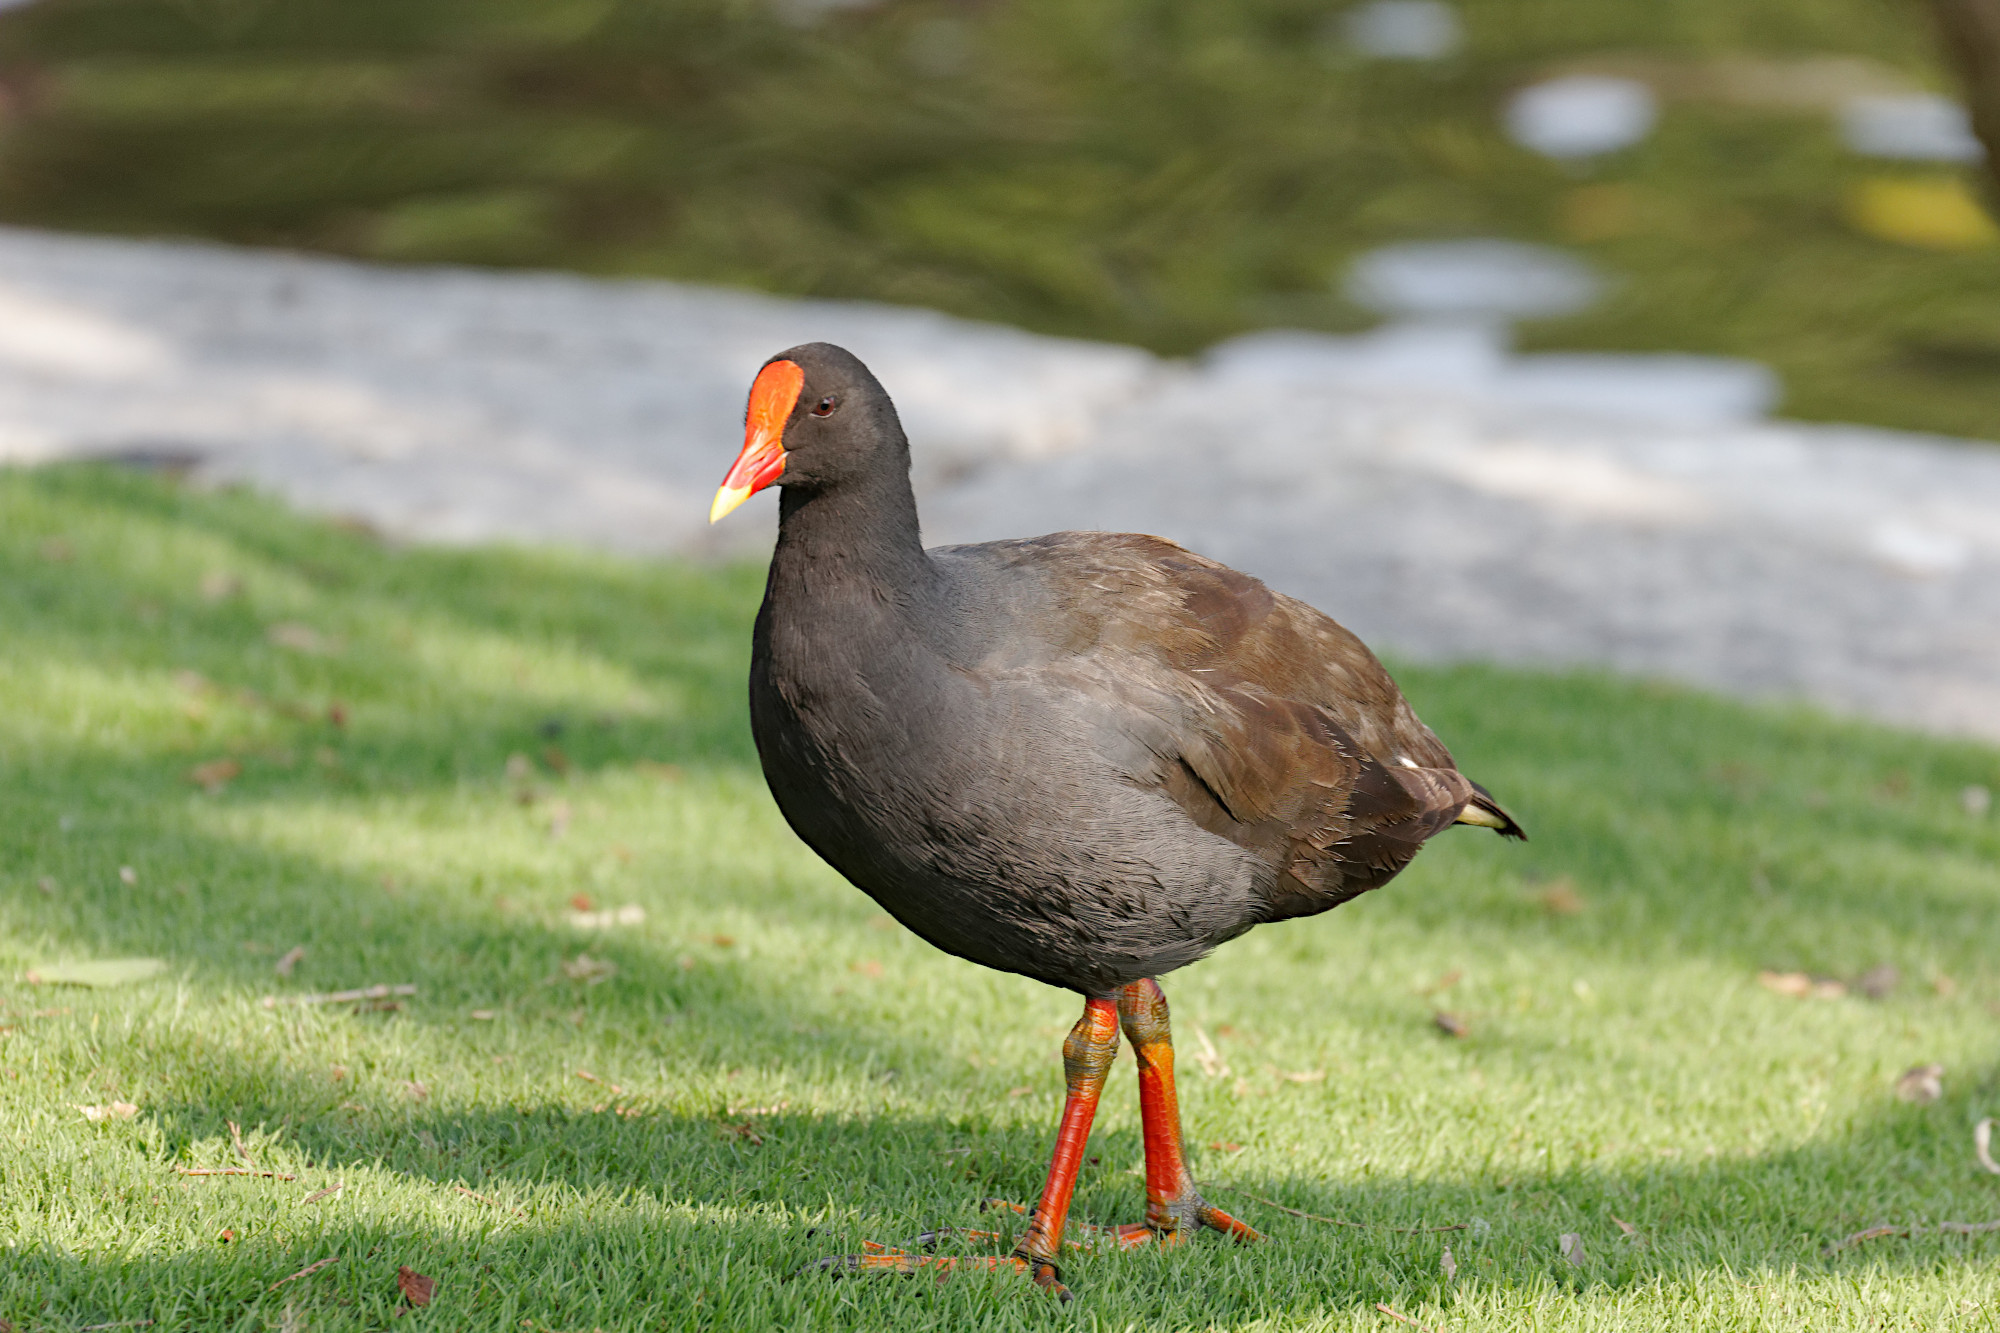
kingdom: Animalia
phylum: Chordata
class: Aves
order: Gruiformes
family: Rallidae
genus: Gallinula
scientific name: Gallinula tenebrosa
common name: Dusky moorhen
